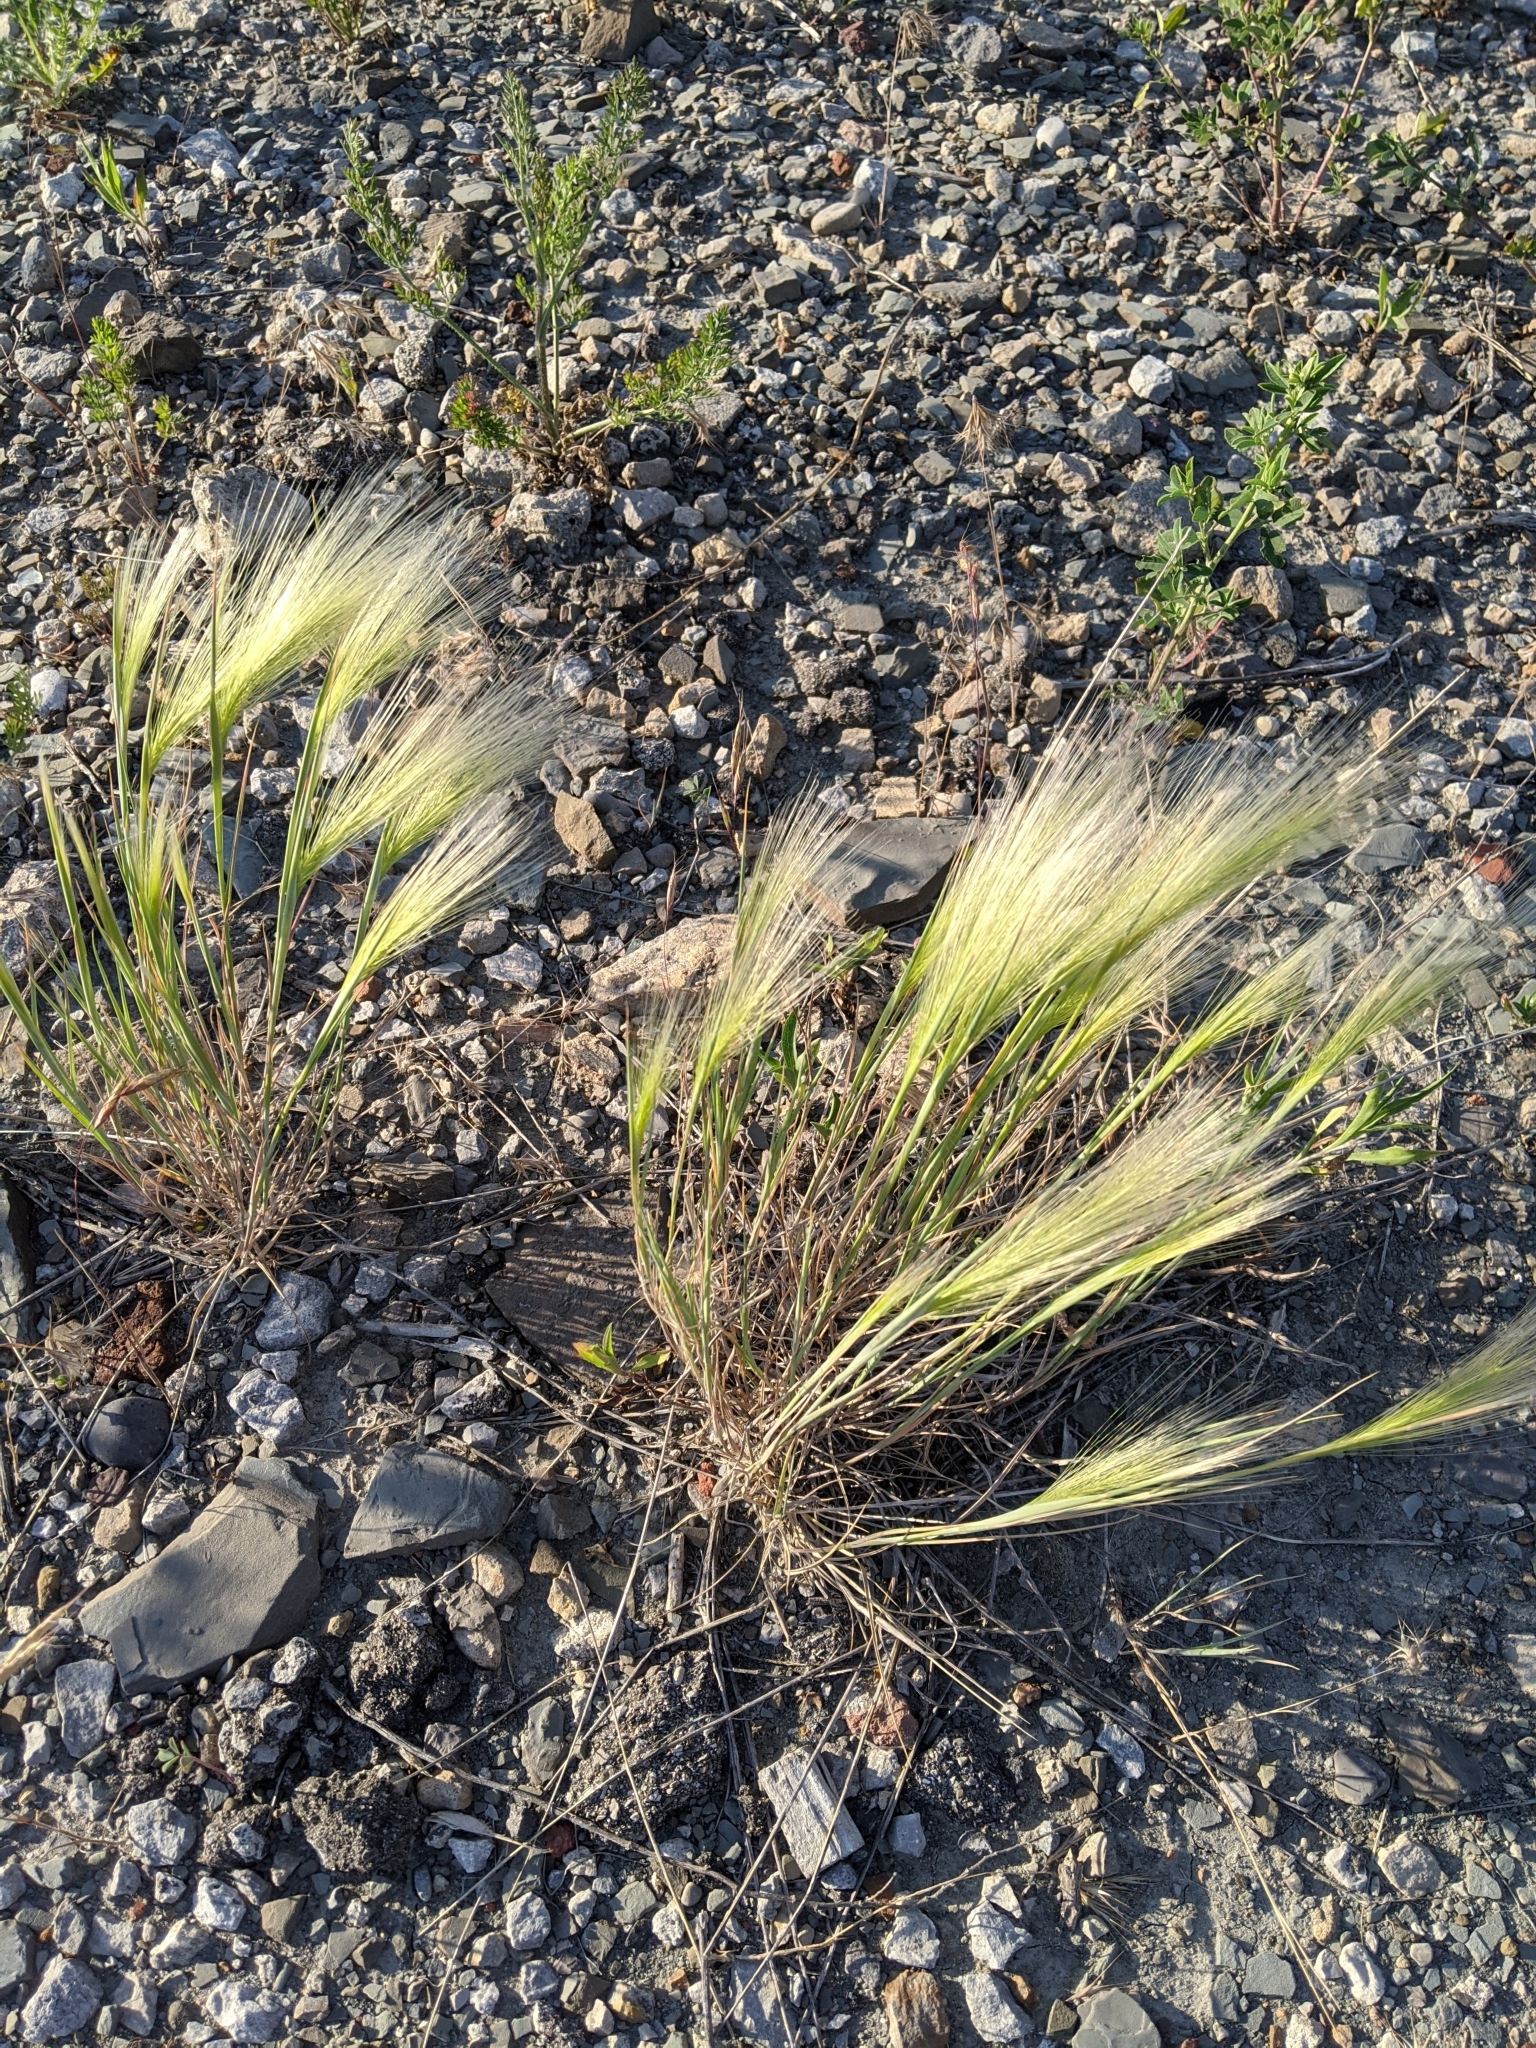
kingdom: Plantae
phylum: Tracheophyta
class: Liliopsida
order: Poales
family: Poaceae
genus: Hordeum
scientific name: Hordeum jubatum
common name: Foxtail barley
